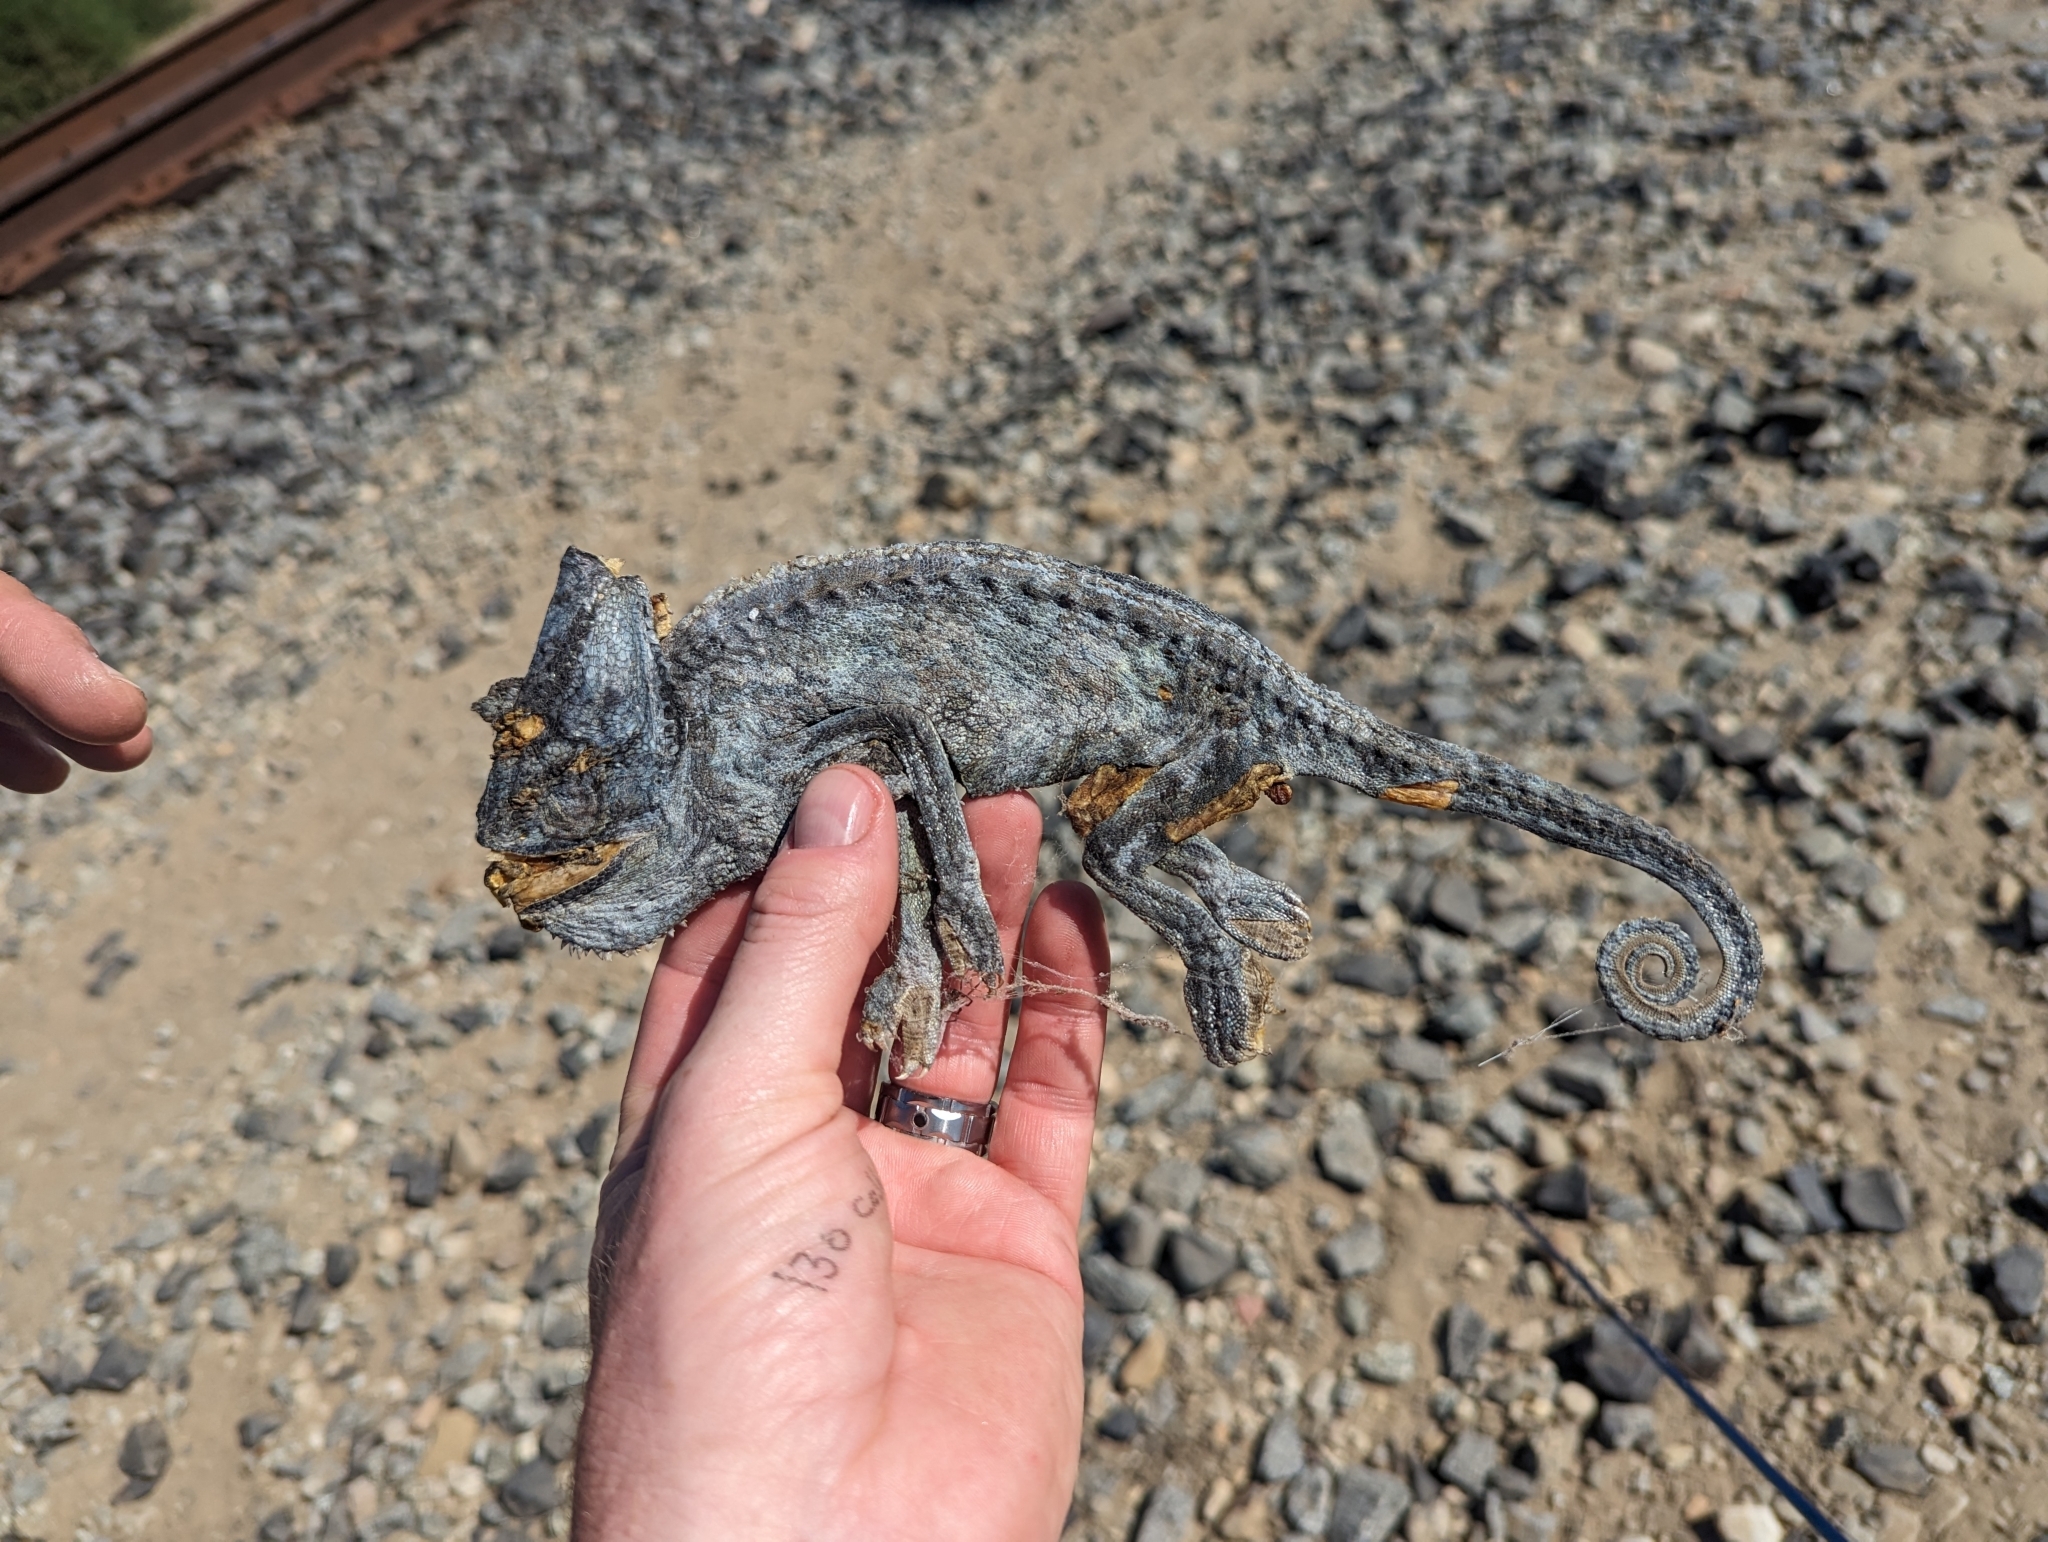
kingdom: Animalia
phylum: Chordata
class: Squamata
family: Chamaeleonidae
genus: Chamaeleo
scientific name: Chamaeleo calyptratus
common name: Veiled chameleon
